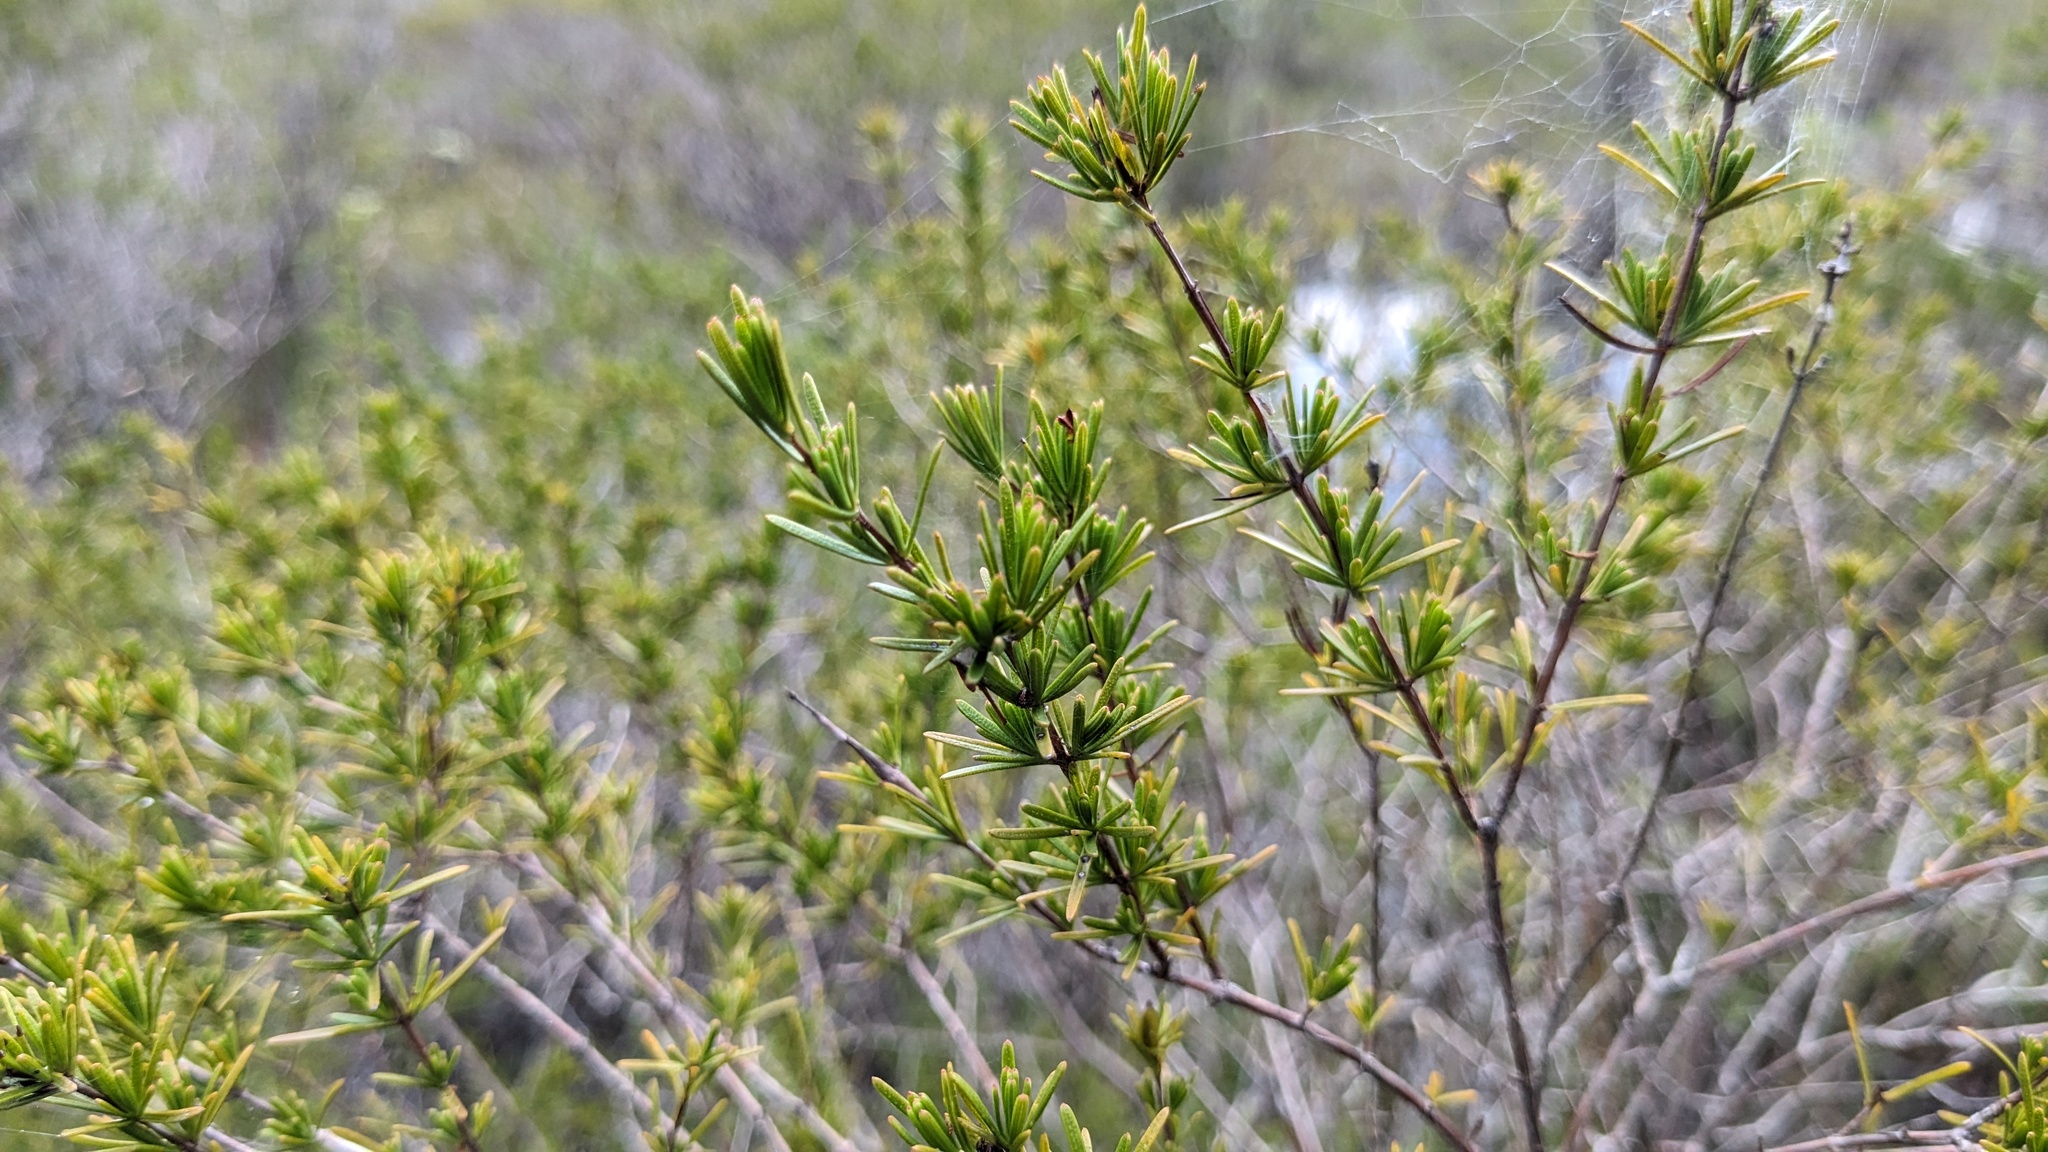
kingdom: Plantae
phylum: Tracheophyta
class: Magnoliopsida
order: Malpighiales
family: Hypericaceae
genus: Hypericum
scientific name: Hypericum chapmanii
